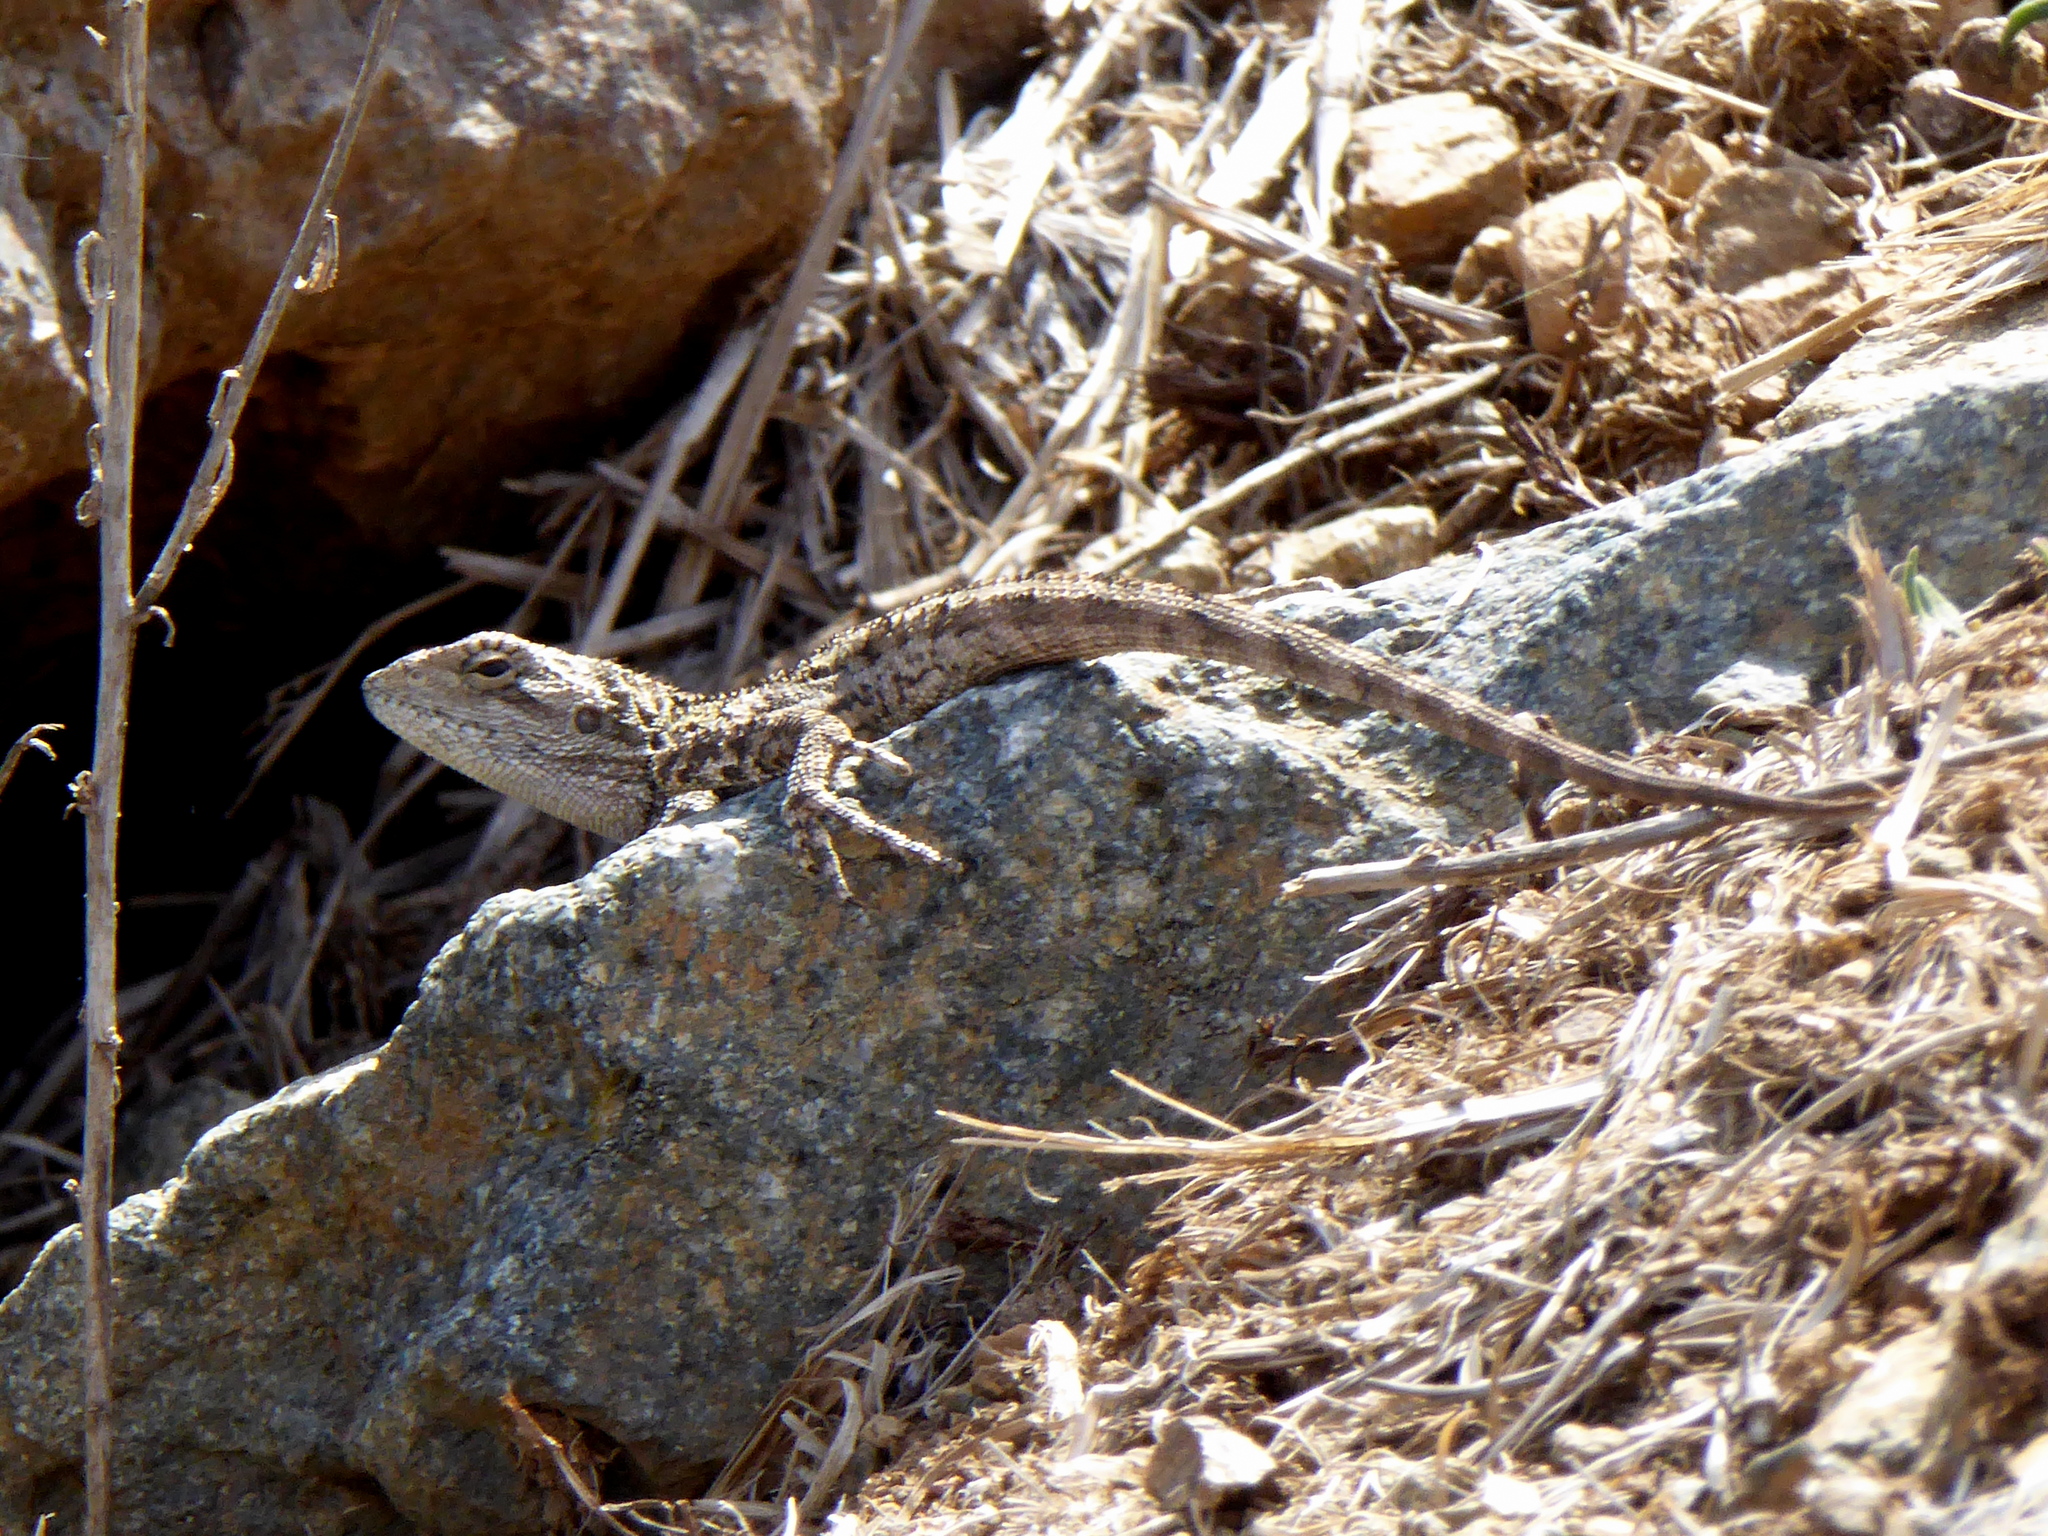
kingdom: Animalia
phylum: Chordata
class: Squamata
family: Agamidae
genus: Amphibolurus
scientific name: Amphibolurus muricatus
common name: Jacky lizard
